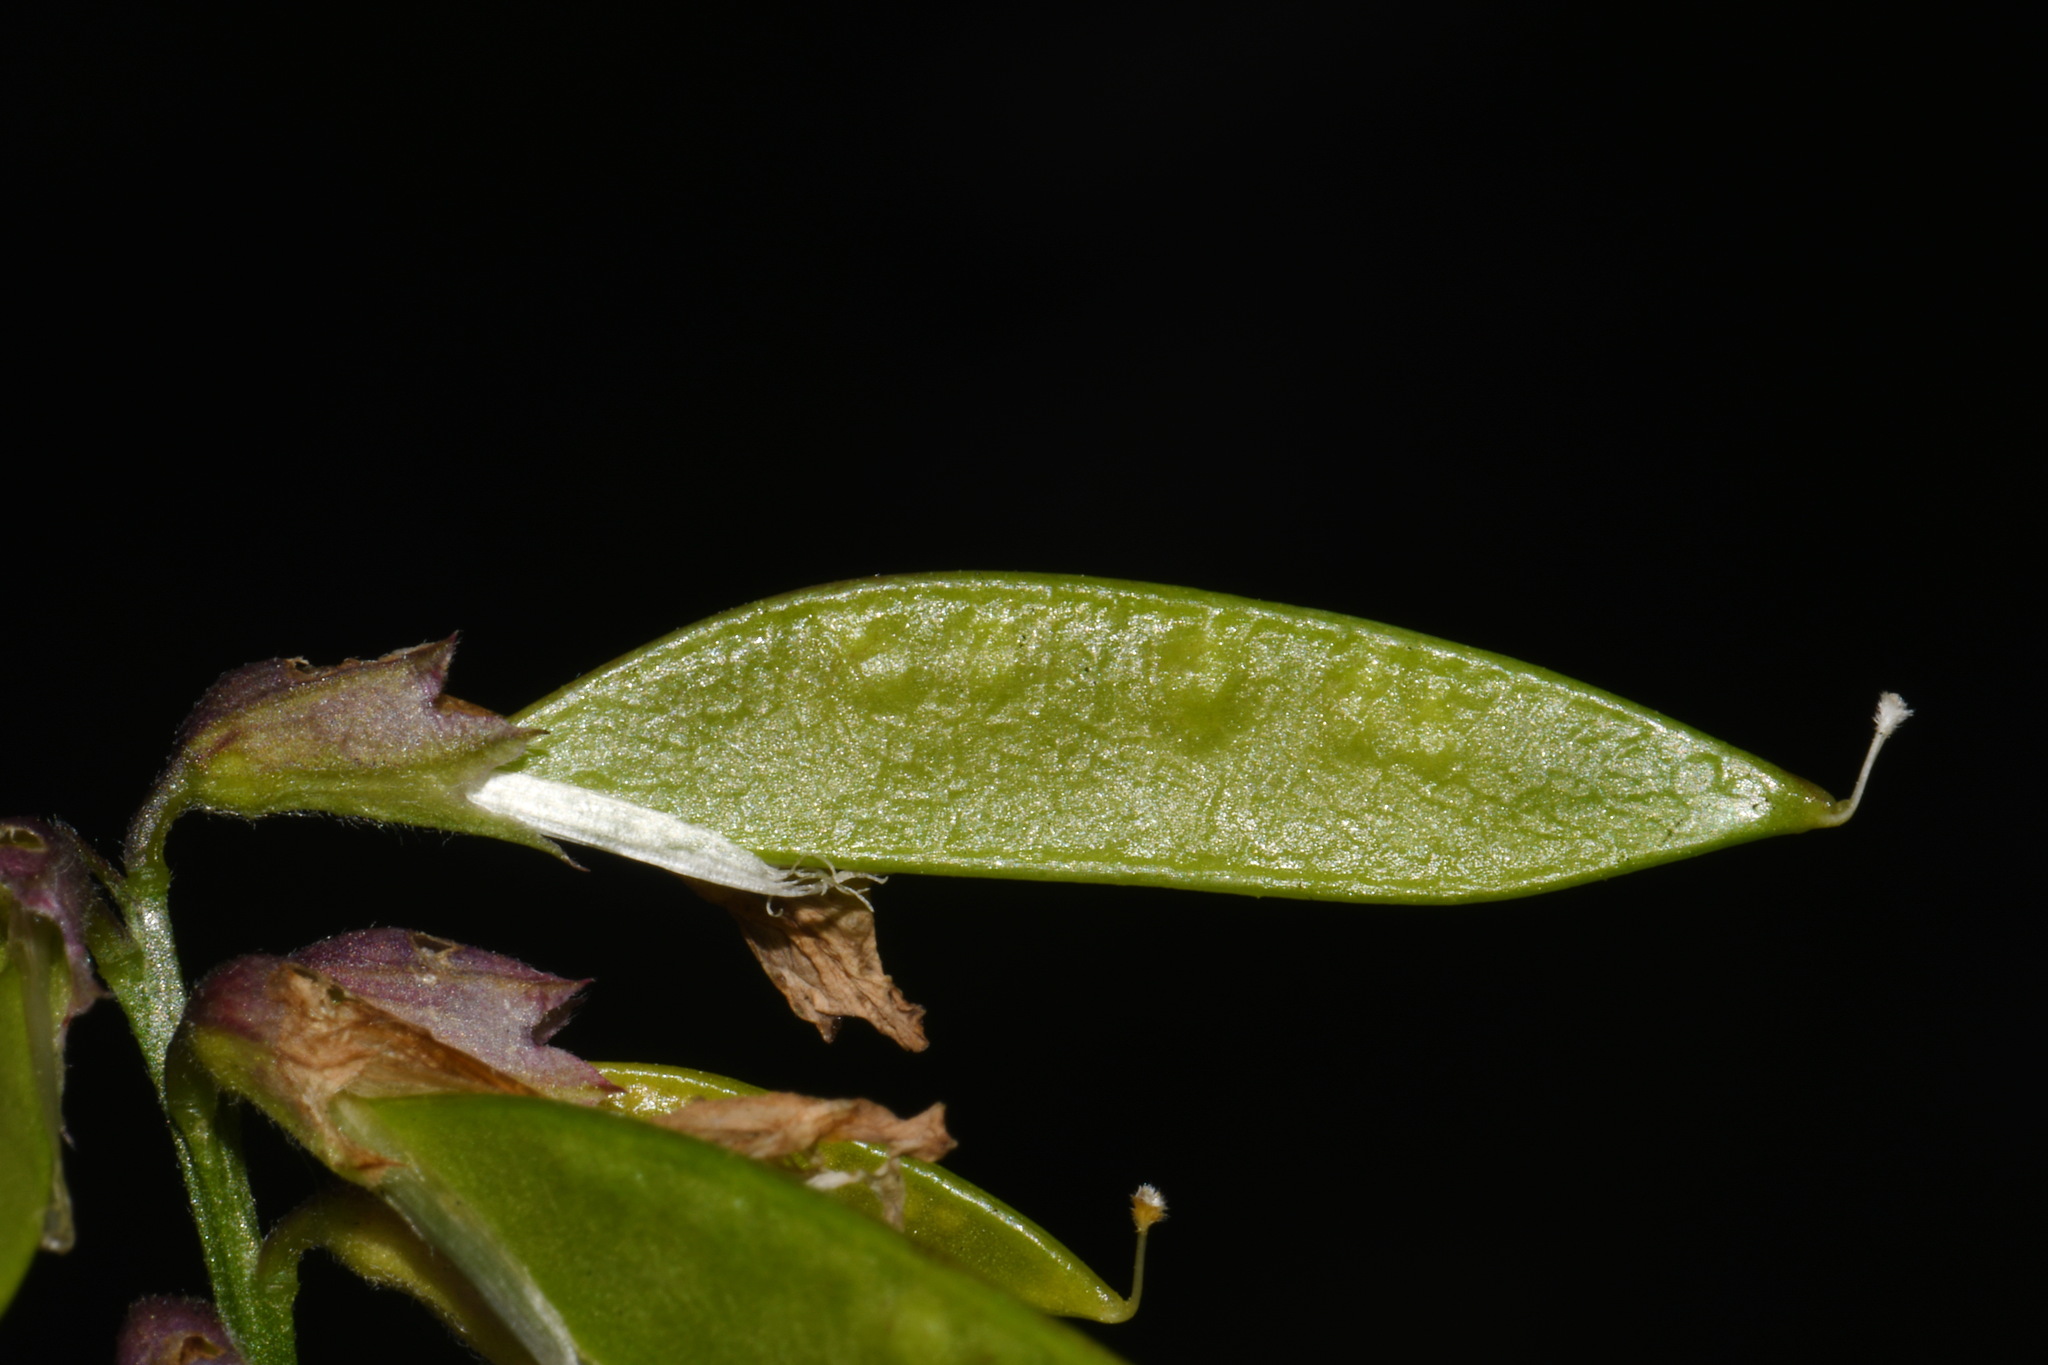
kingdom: Plantae
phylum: Tracheophyta
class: Magnoliopsida
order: Fabales
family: Fabaceae
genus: Vicia
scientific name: Vicia americana
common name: American vetch
